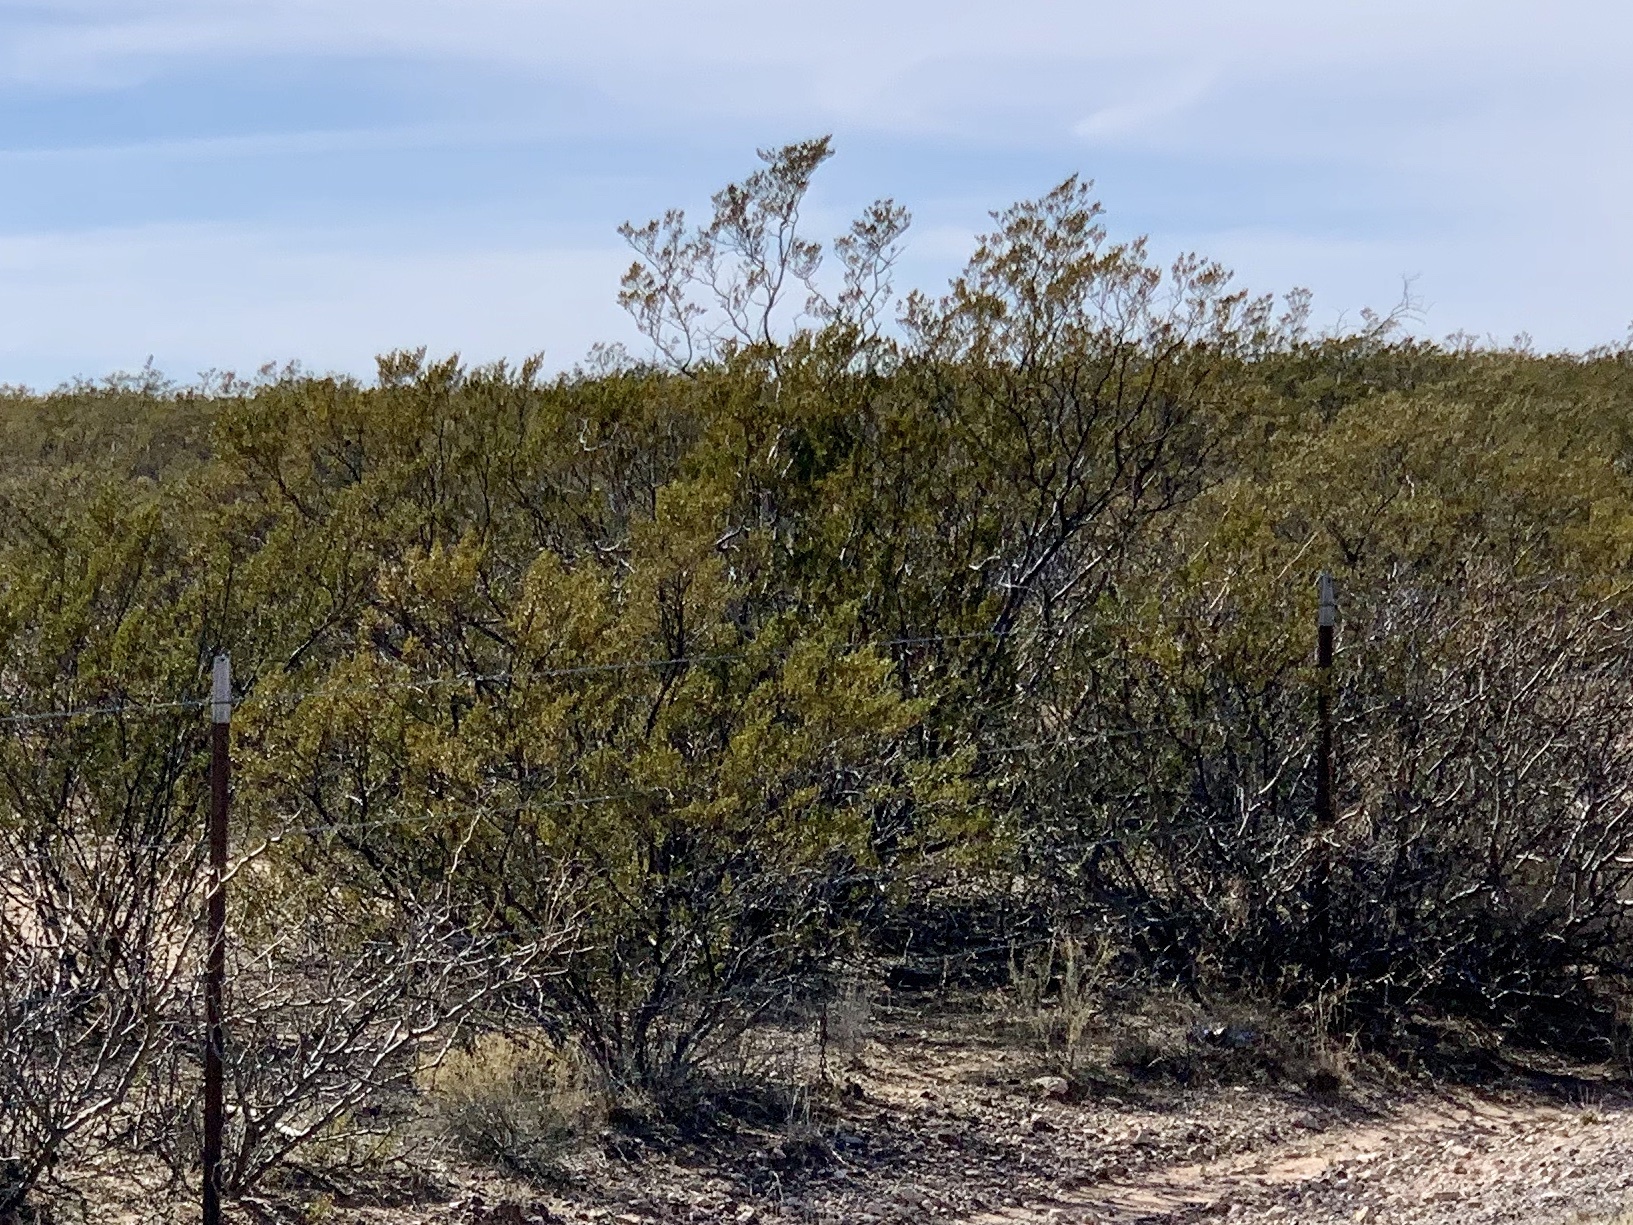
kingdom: Plantae
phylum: Tracheophyta
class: Magnoliopsida
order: Zygophyllales
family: Zygophyllaceae
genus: Larrea
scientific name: Larrea tridentata
